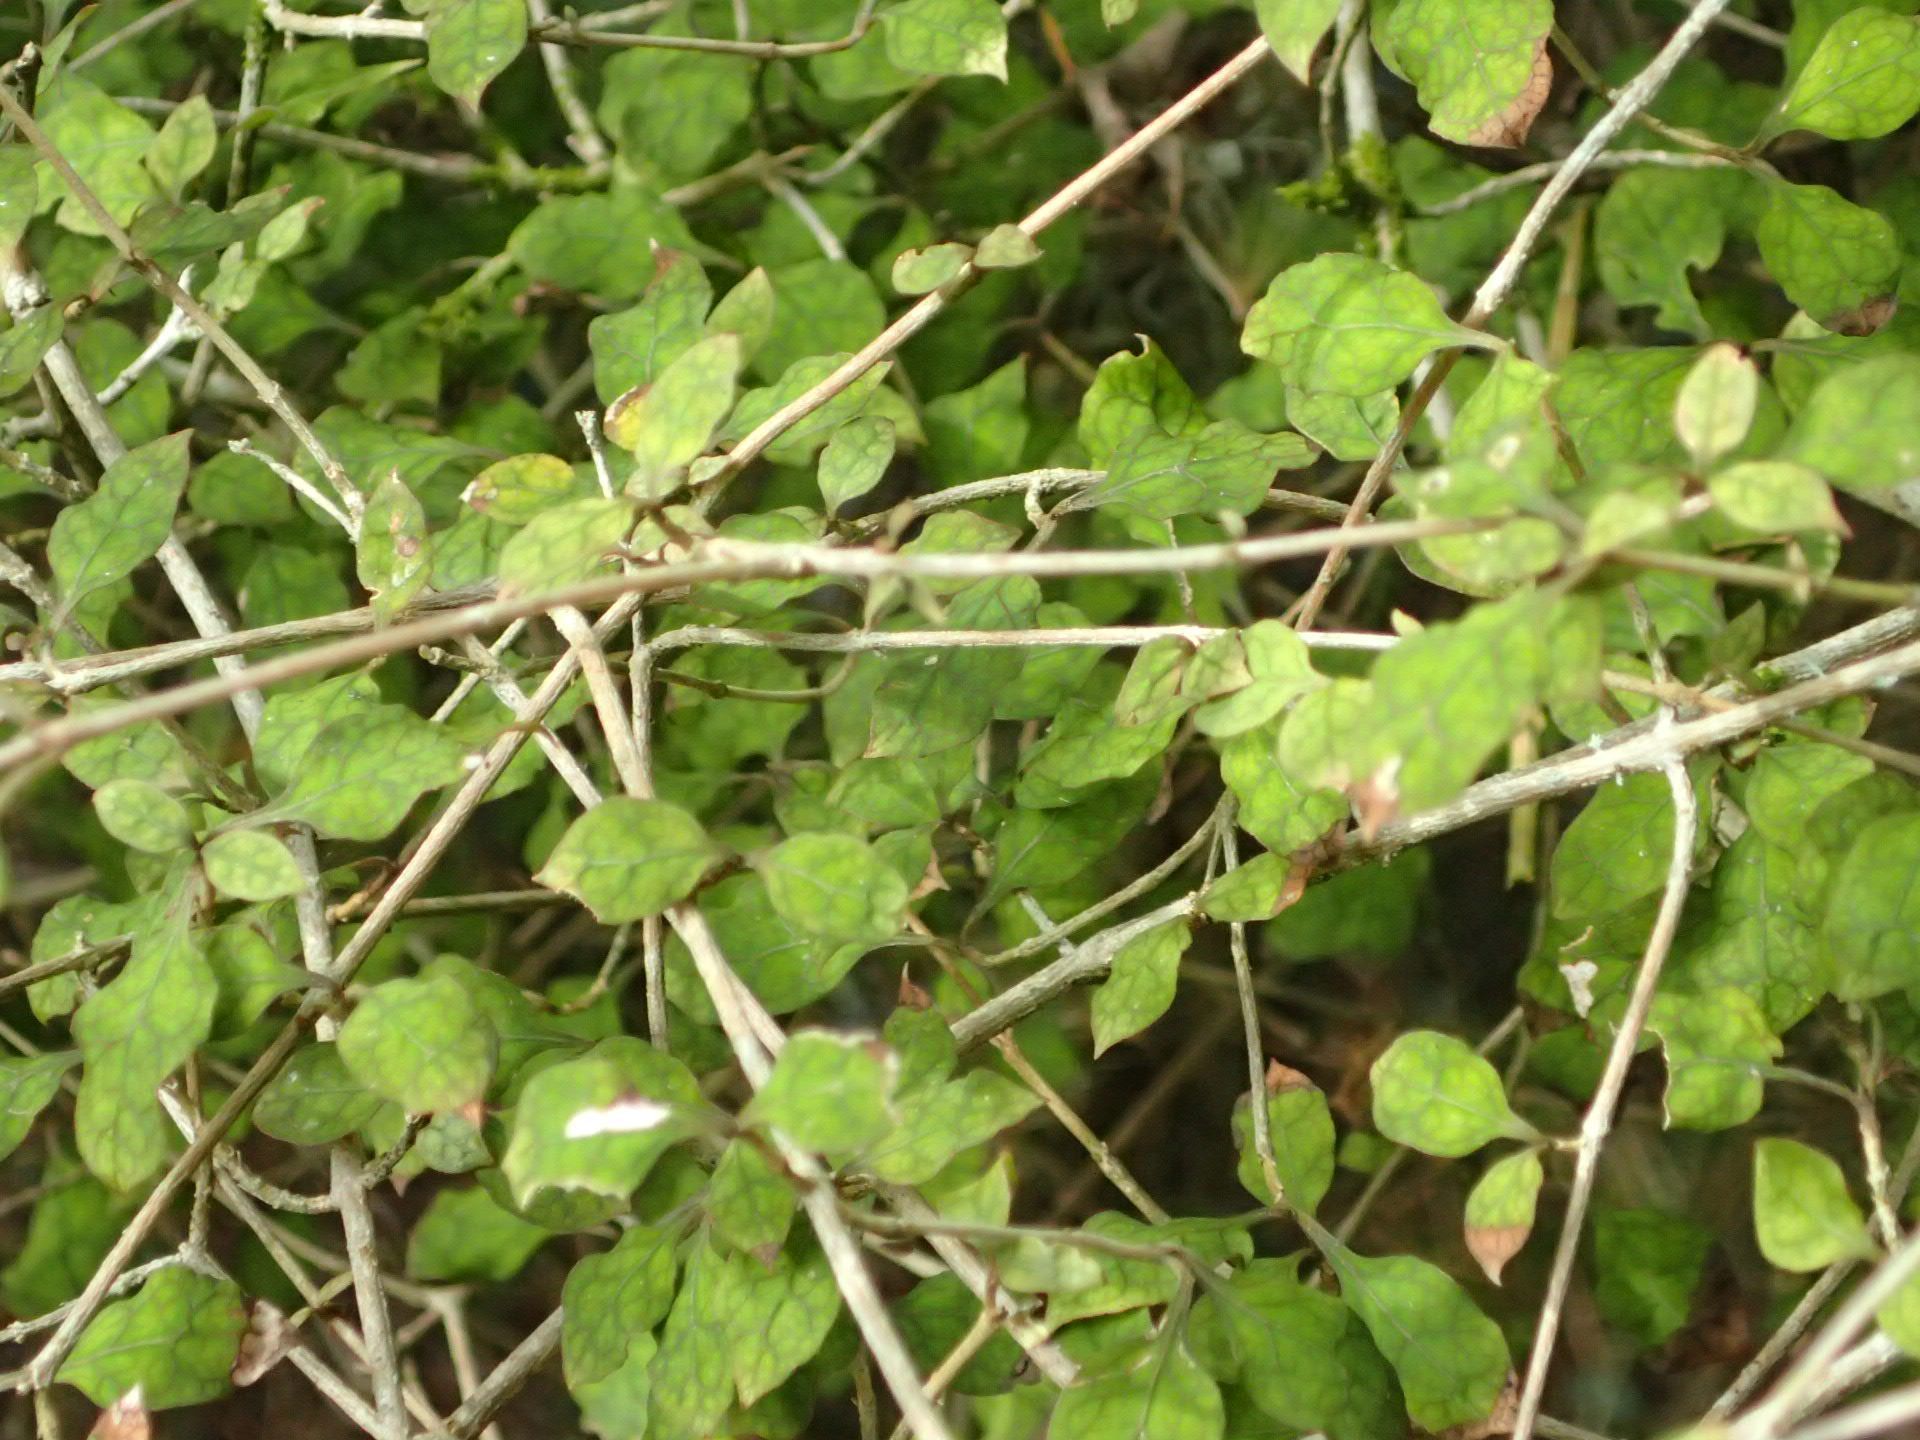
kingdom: Plantae
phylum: Tracheophyta
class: Magnoliopsida
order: Gentianales
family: Rubiaceae
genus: Coprosma
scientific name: Coprosma areolata
